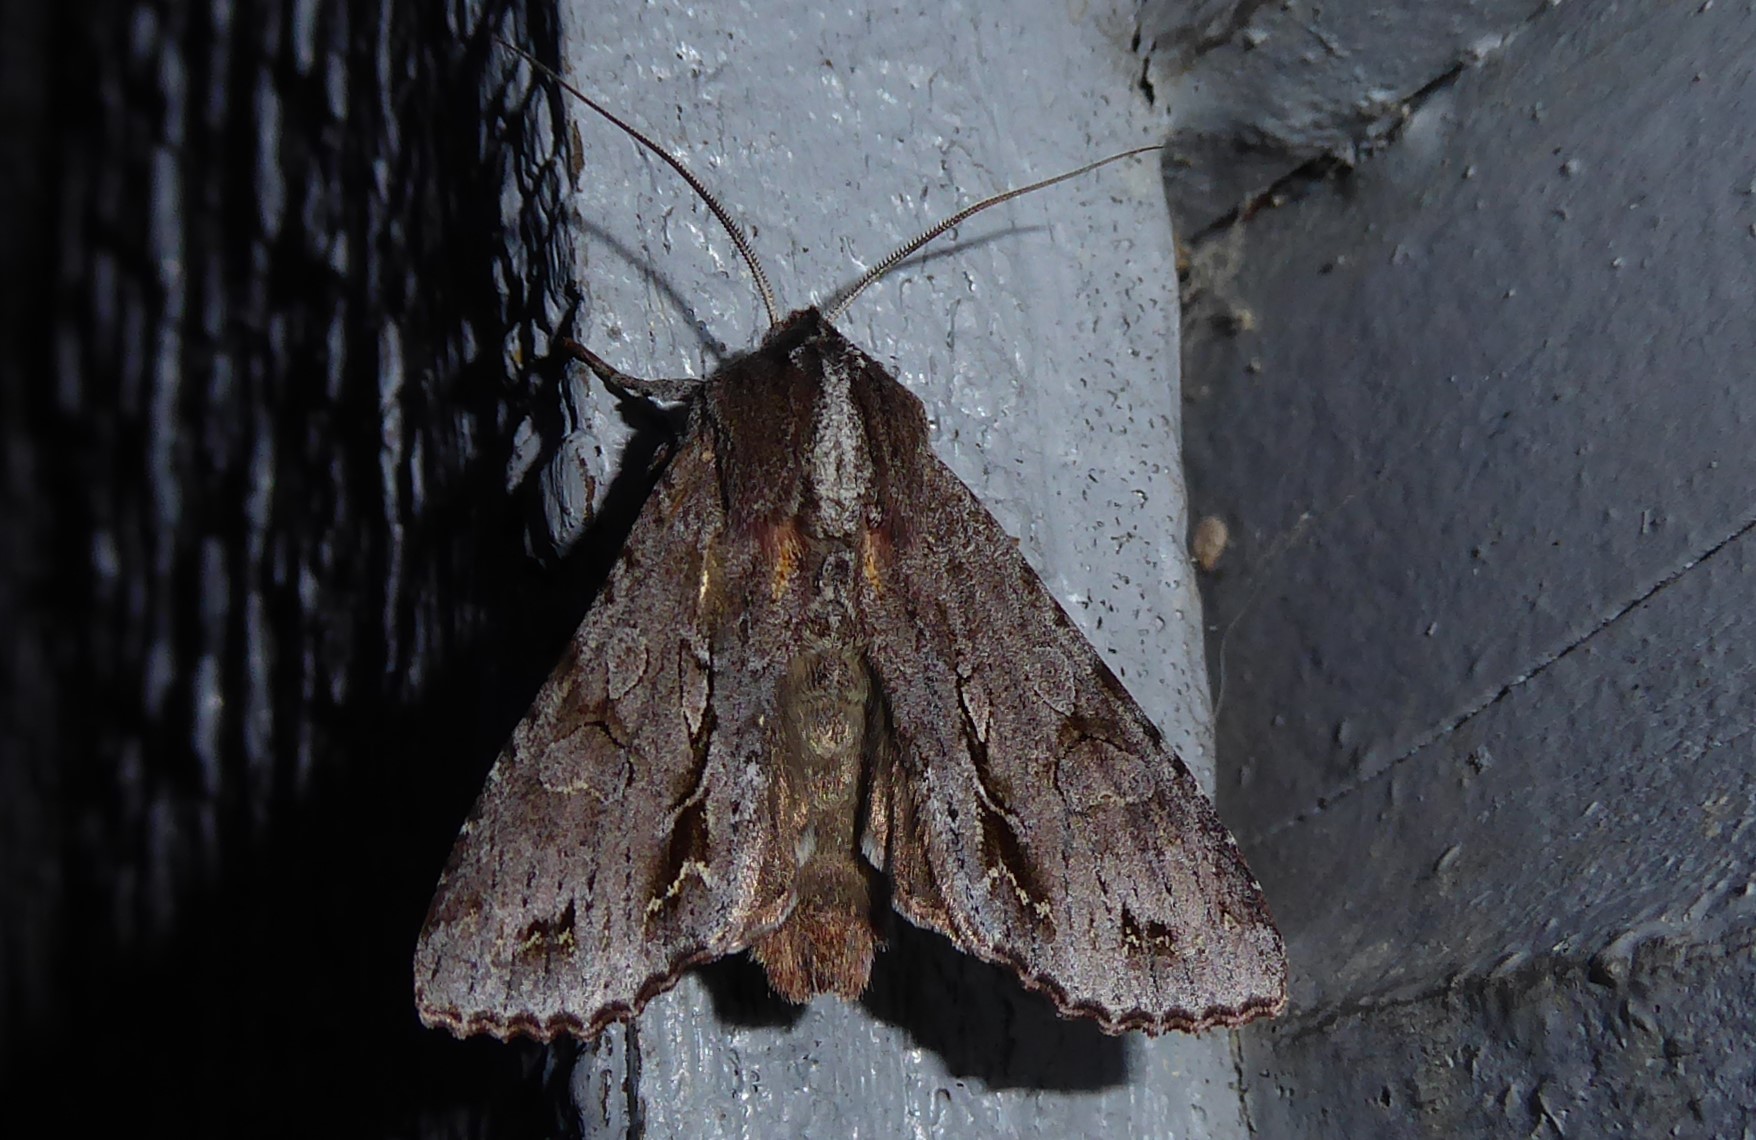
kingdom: Animalia
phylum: Arthropoda
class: Insecta
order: Lepidoptera
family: Noctuidae
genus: Ichneutica
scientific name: Ichneutica
